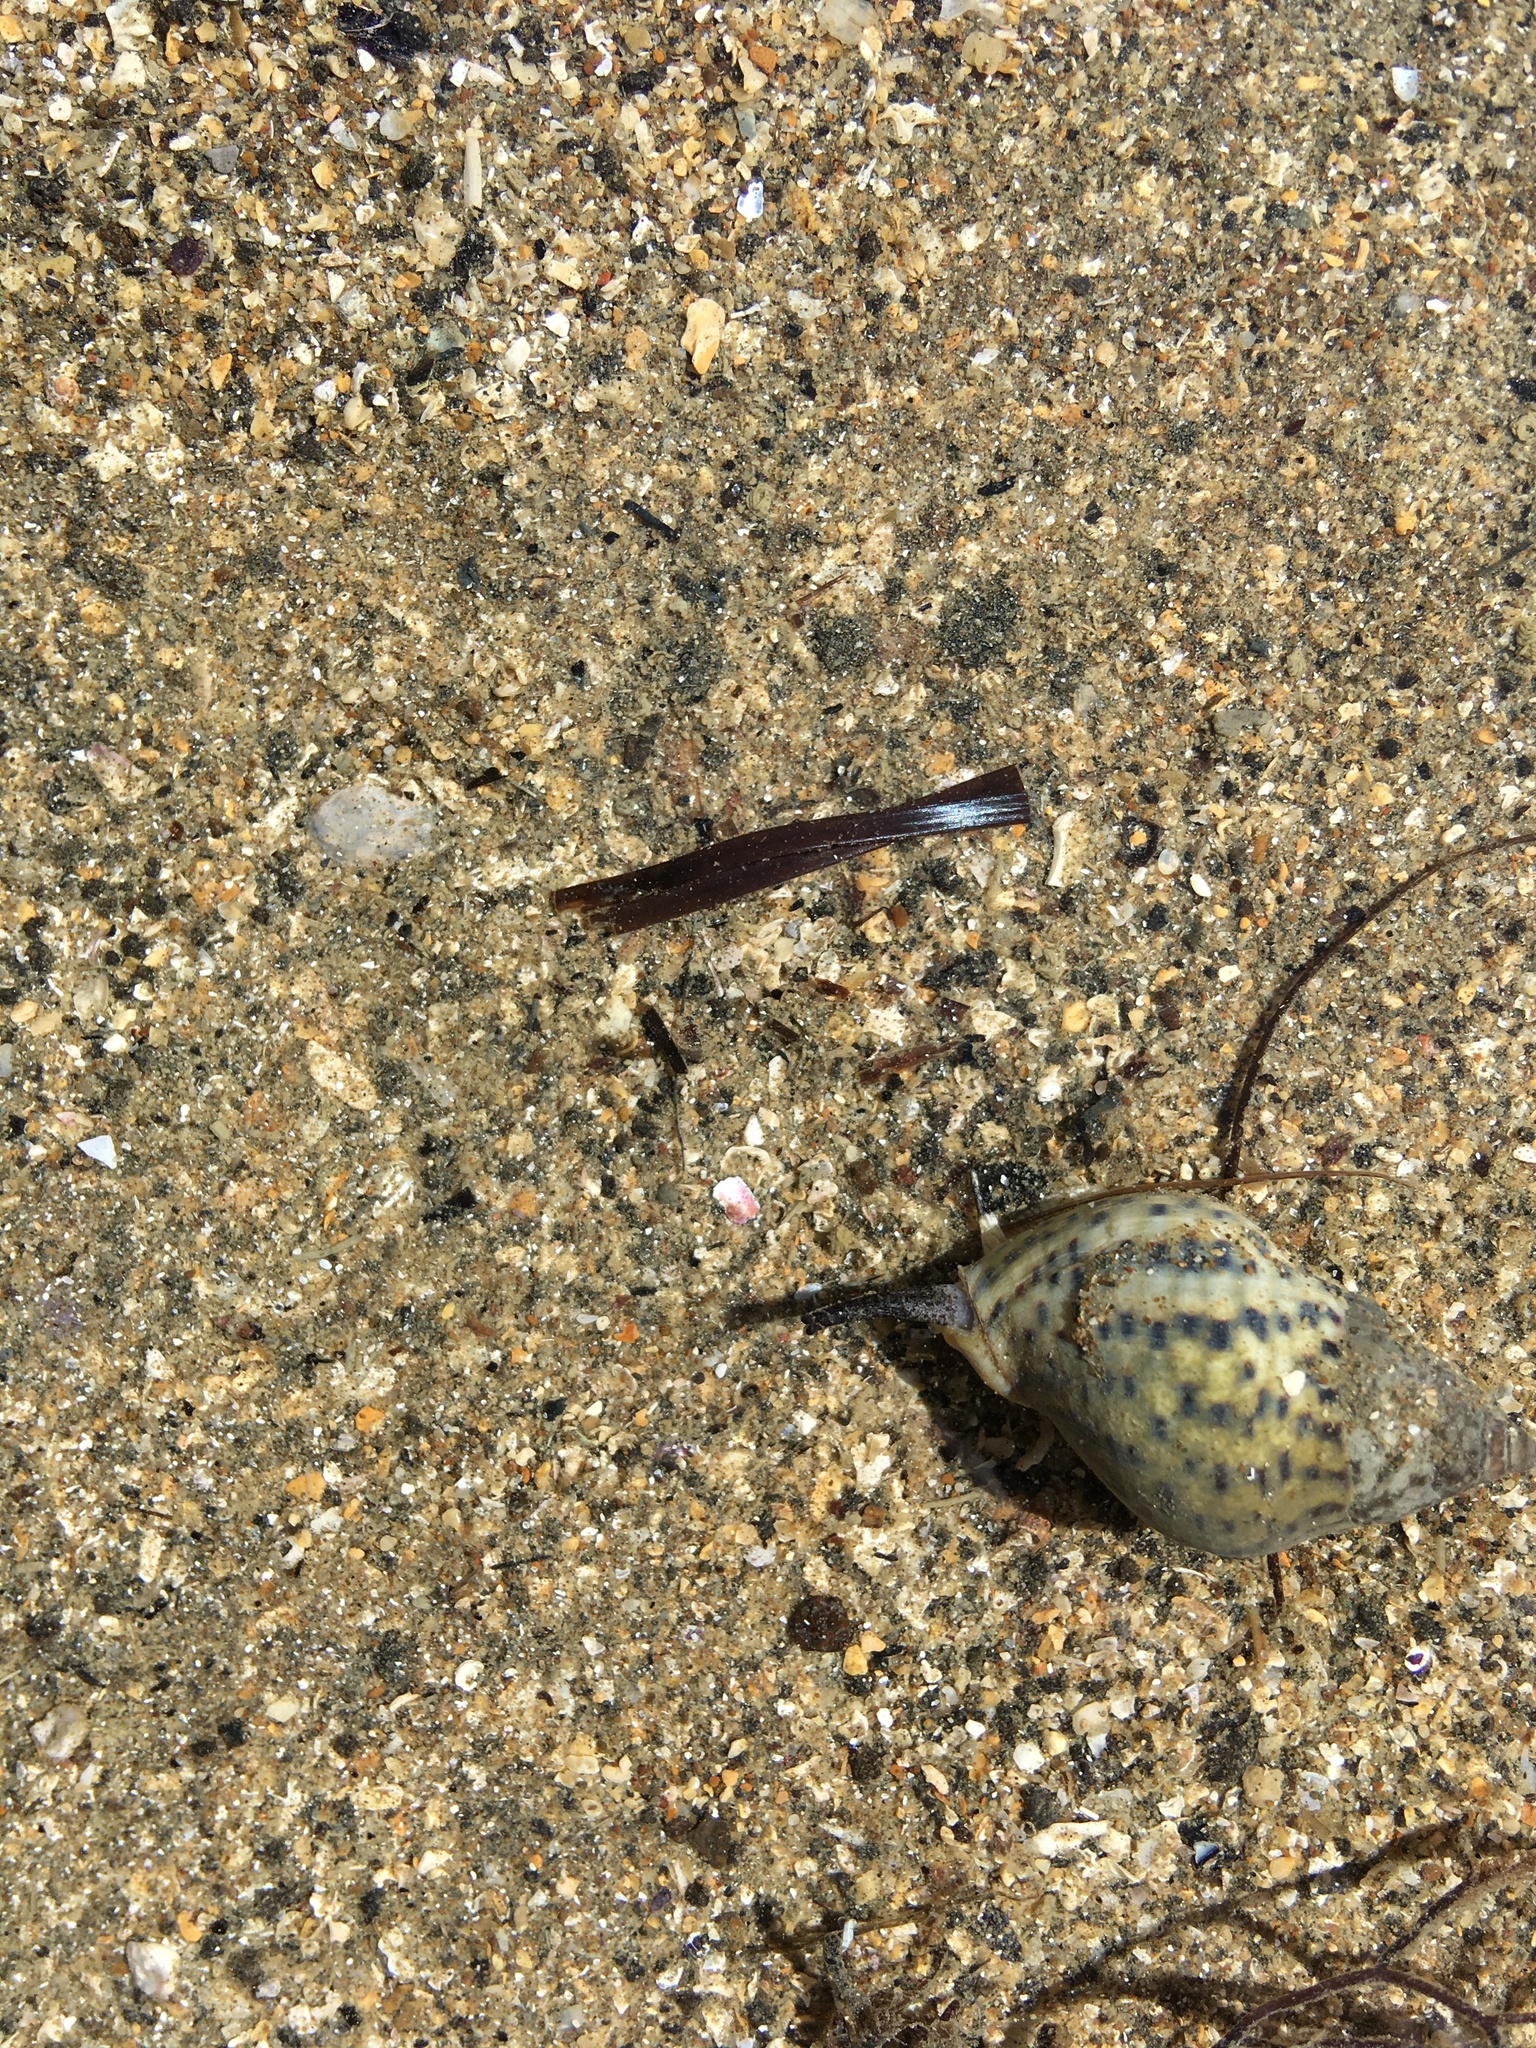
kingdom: Animalia
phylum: Mollusca
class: Gastropoda
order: Neogastropoda
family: Cominellidae
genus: Cominella
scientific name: Cominella maculosa
